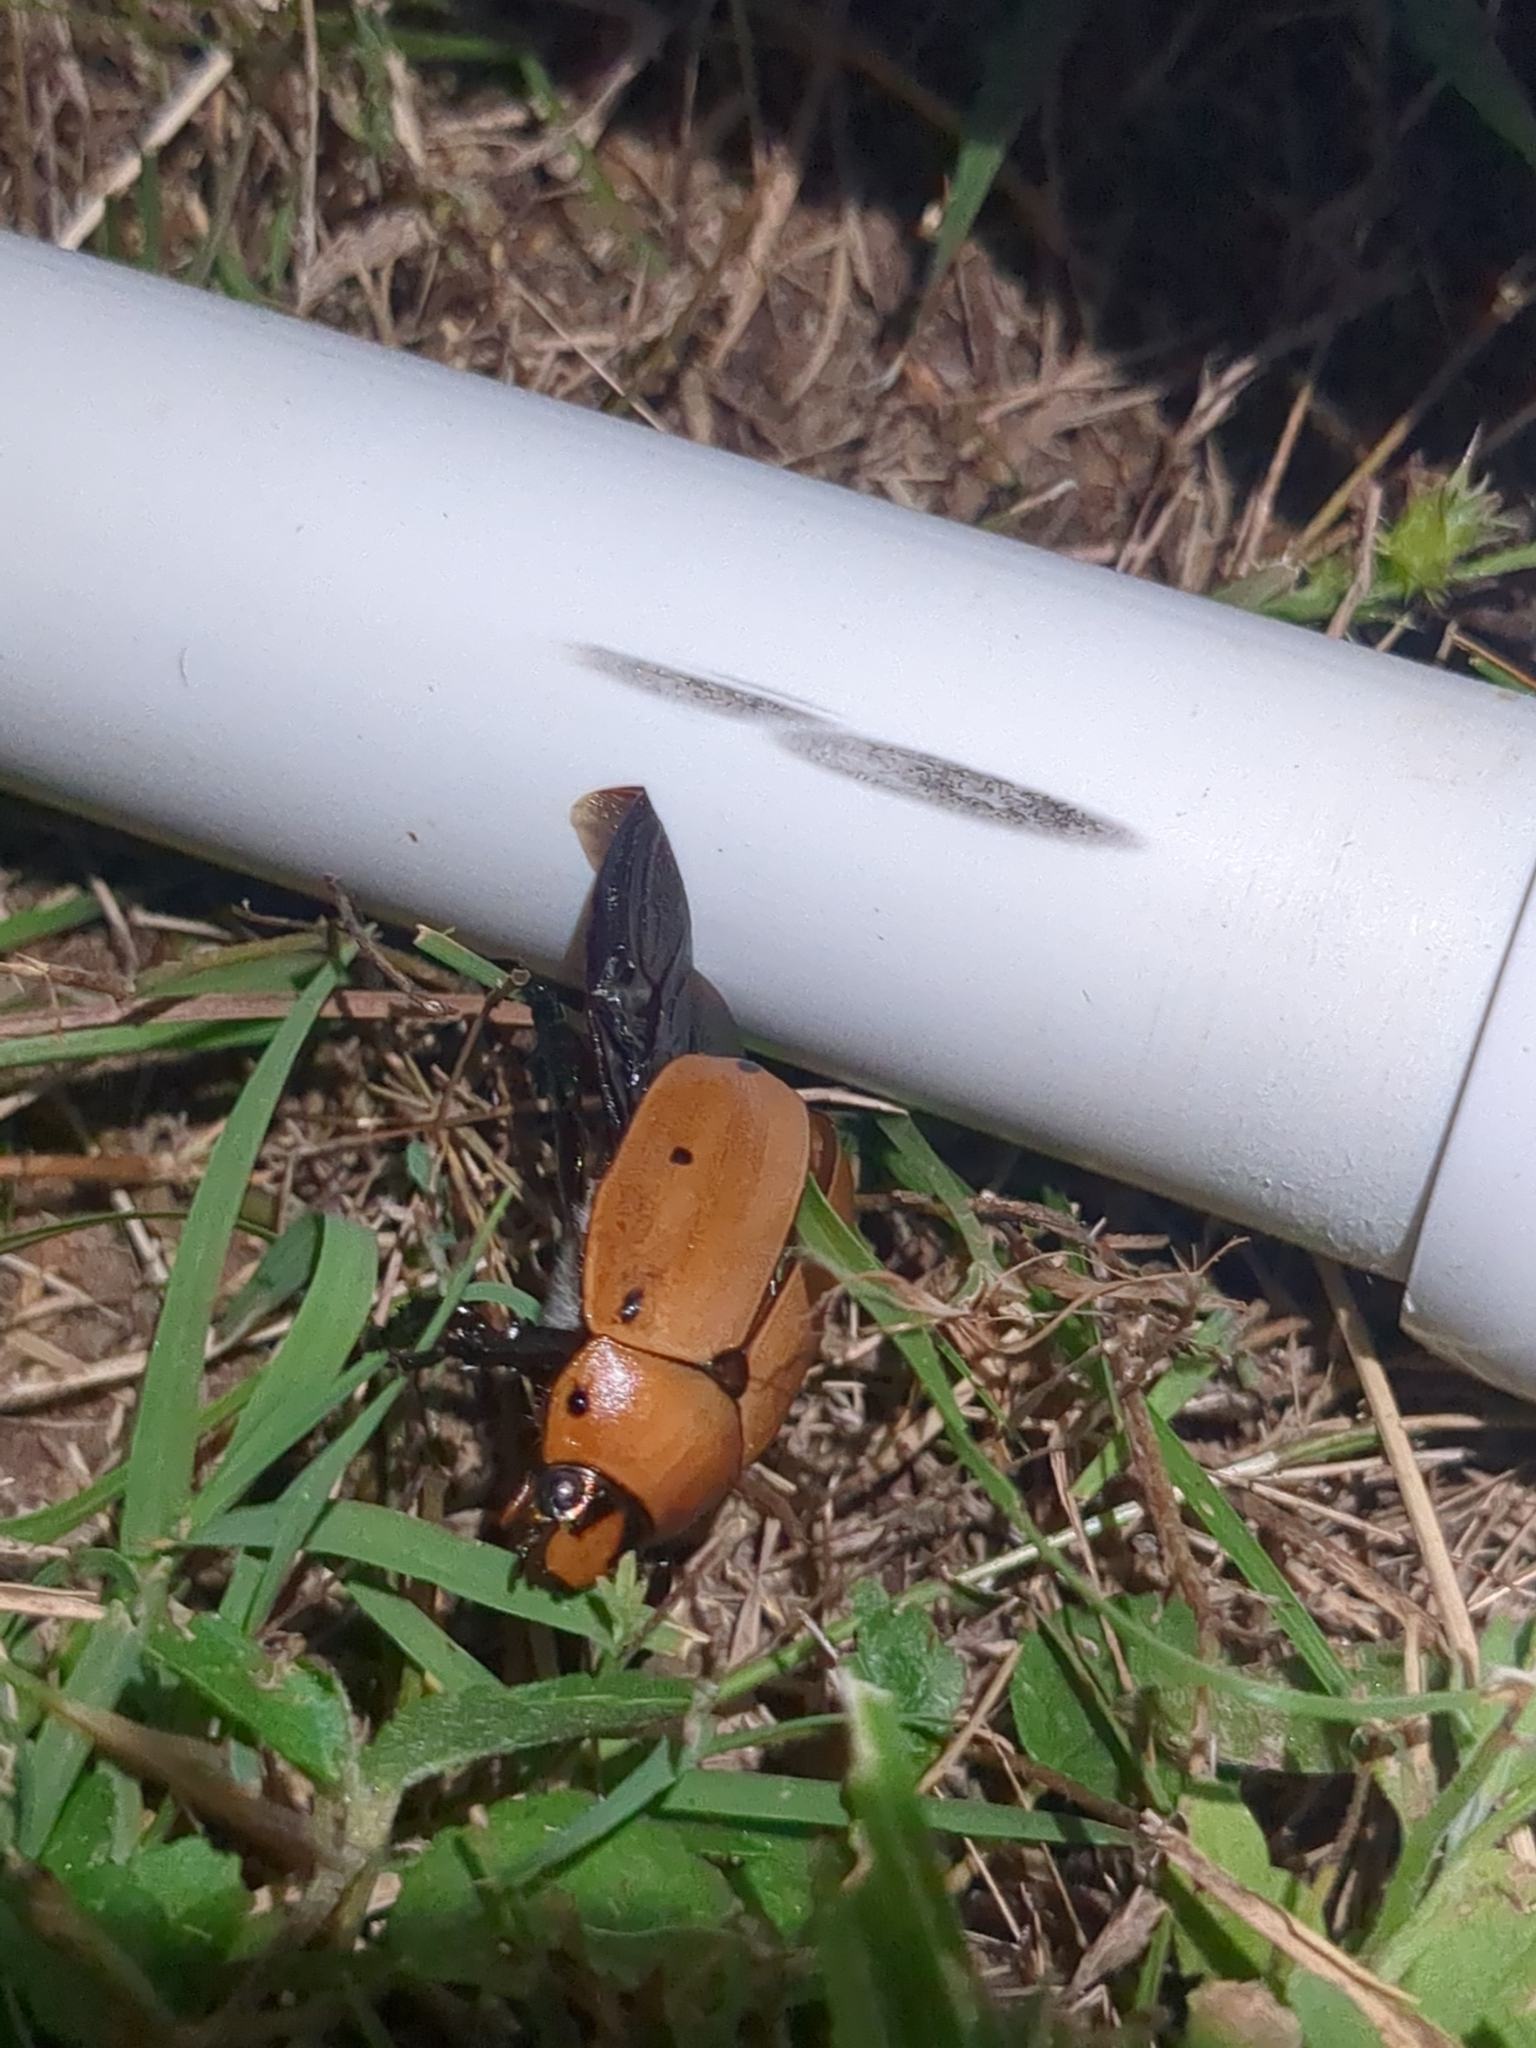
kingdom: Animalia
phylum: Arthropoda
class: Insecta
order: Coleoptera
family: Scarabaeidae
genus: Pelidnota
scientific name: Pelidnota punctata
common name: Grapevine beetle
